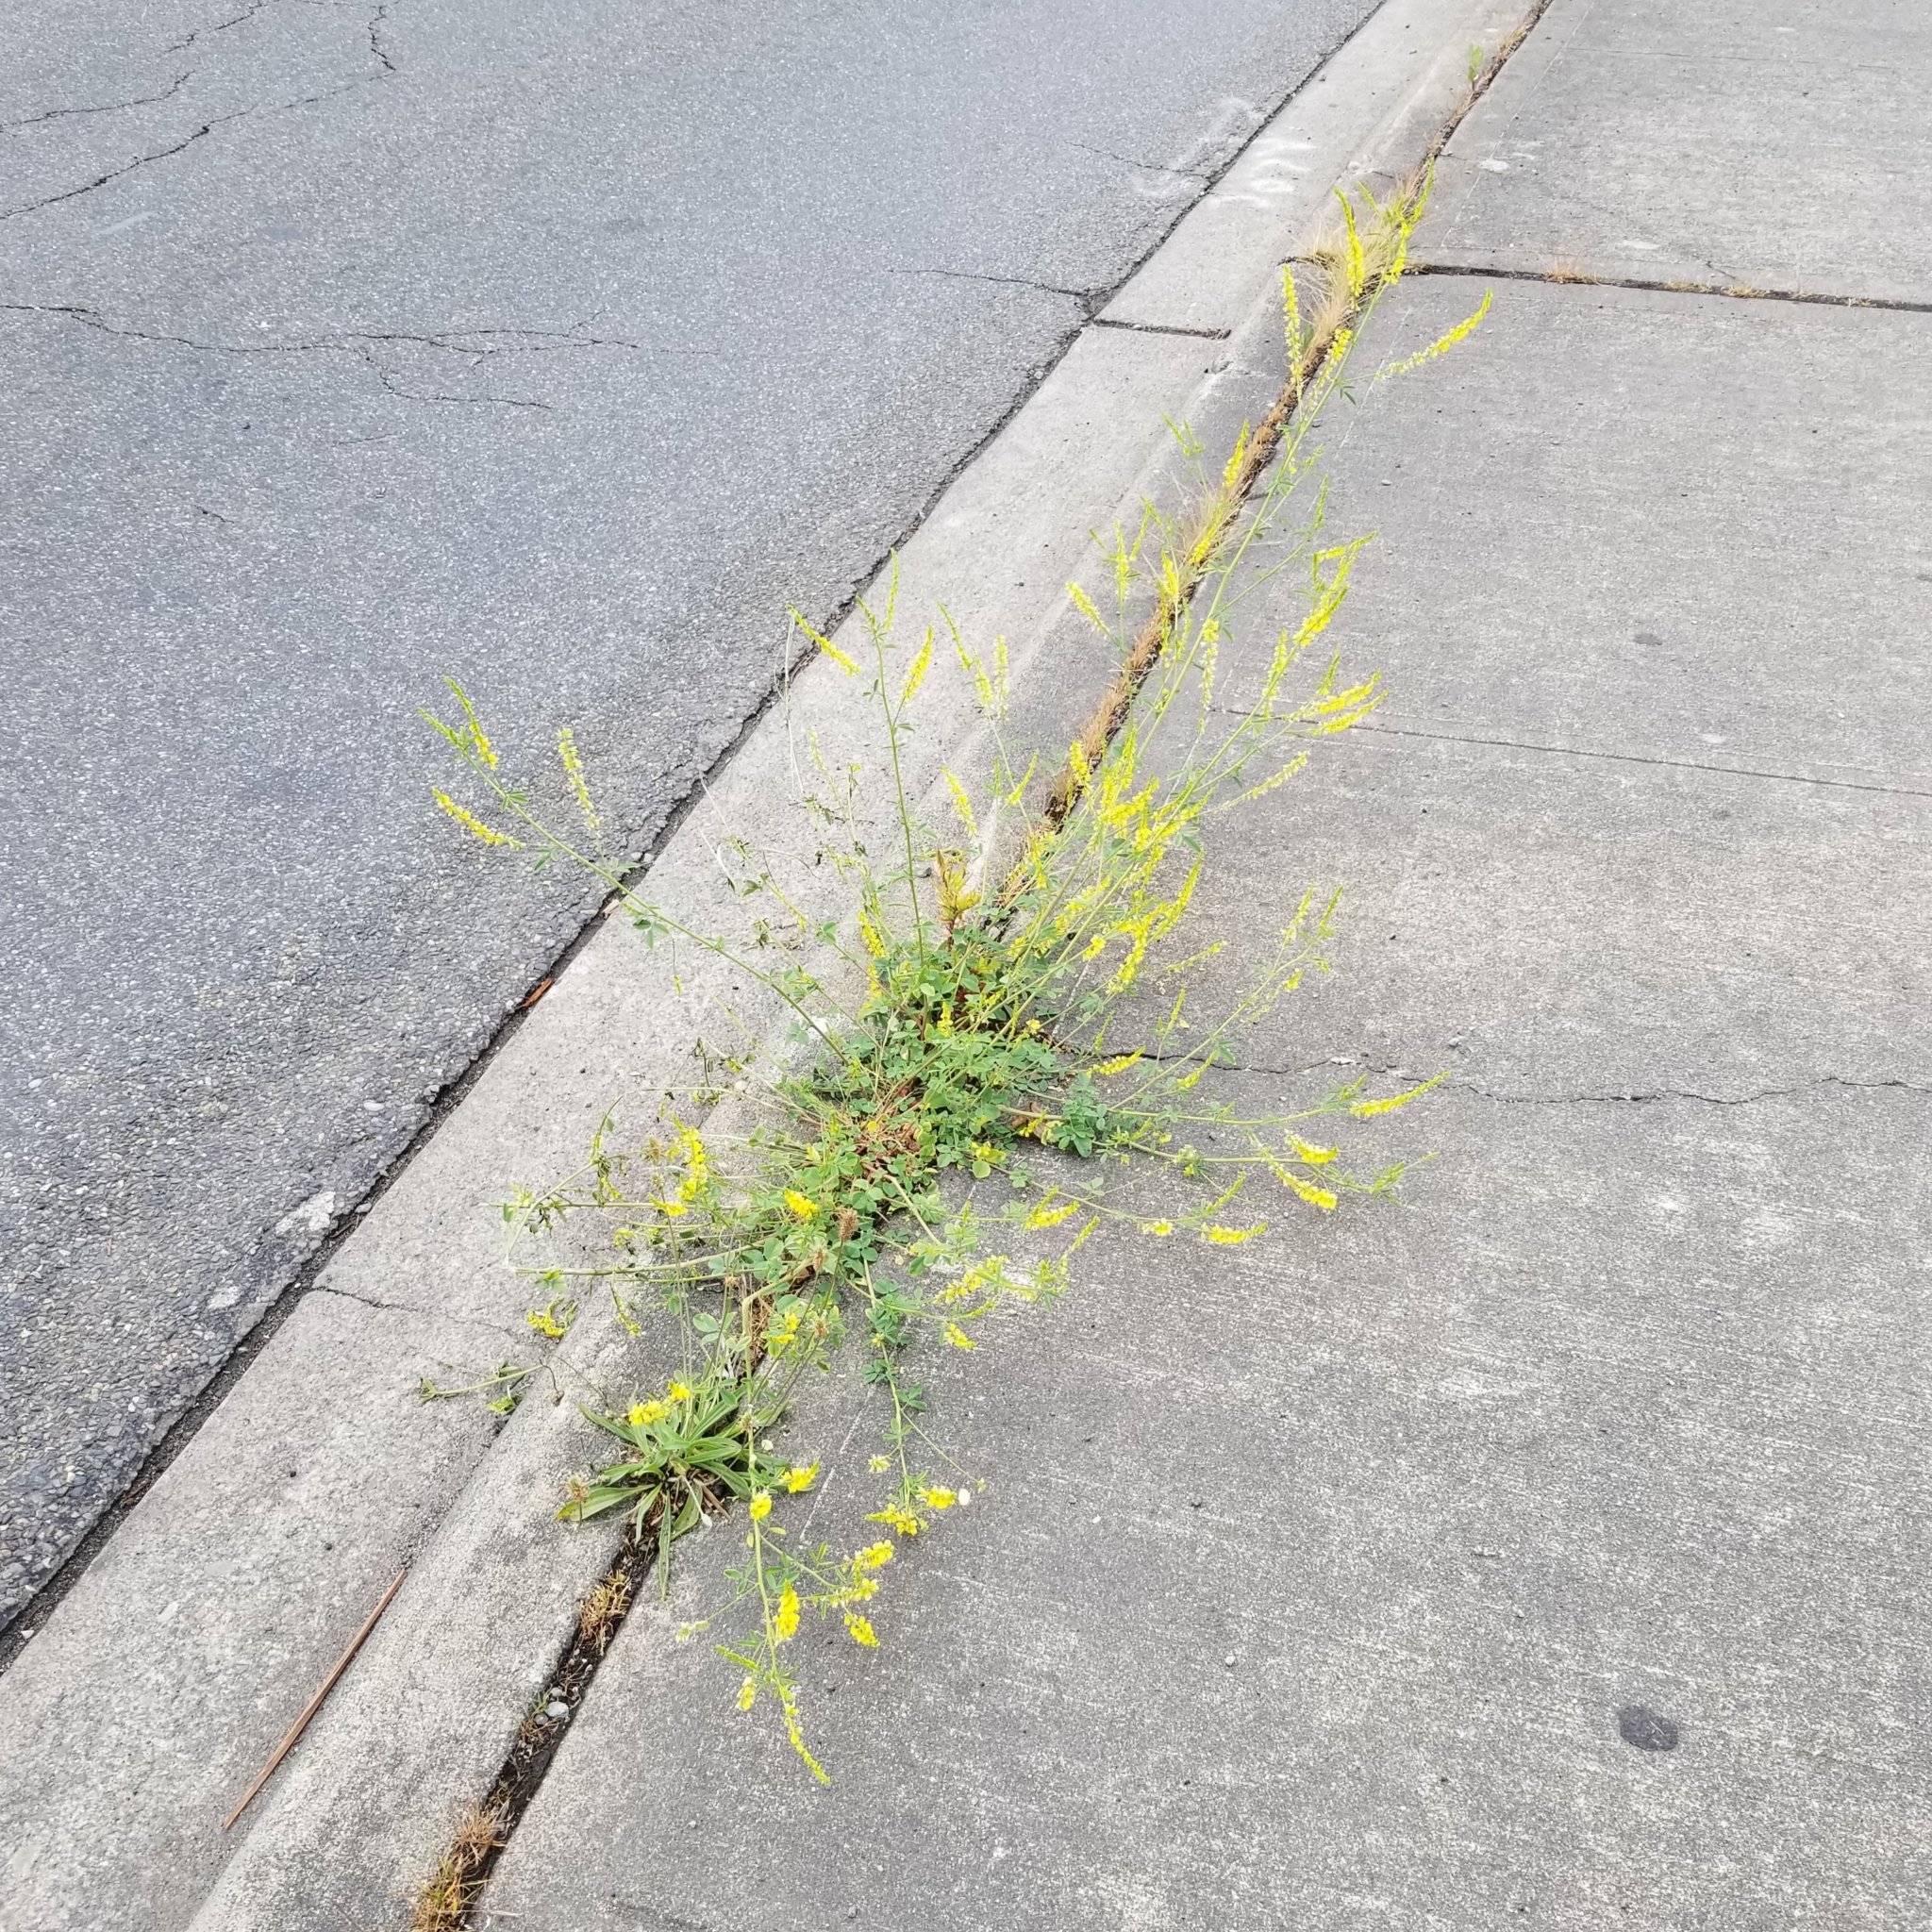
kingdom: Plantae
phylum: Tracheophyta
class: Magnoliopsida
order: Fabales
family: Fabaceae
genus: Melilotus
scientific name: Melilotus officinalis
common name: Sweetclover
